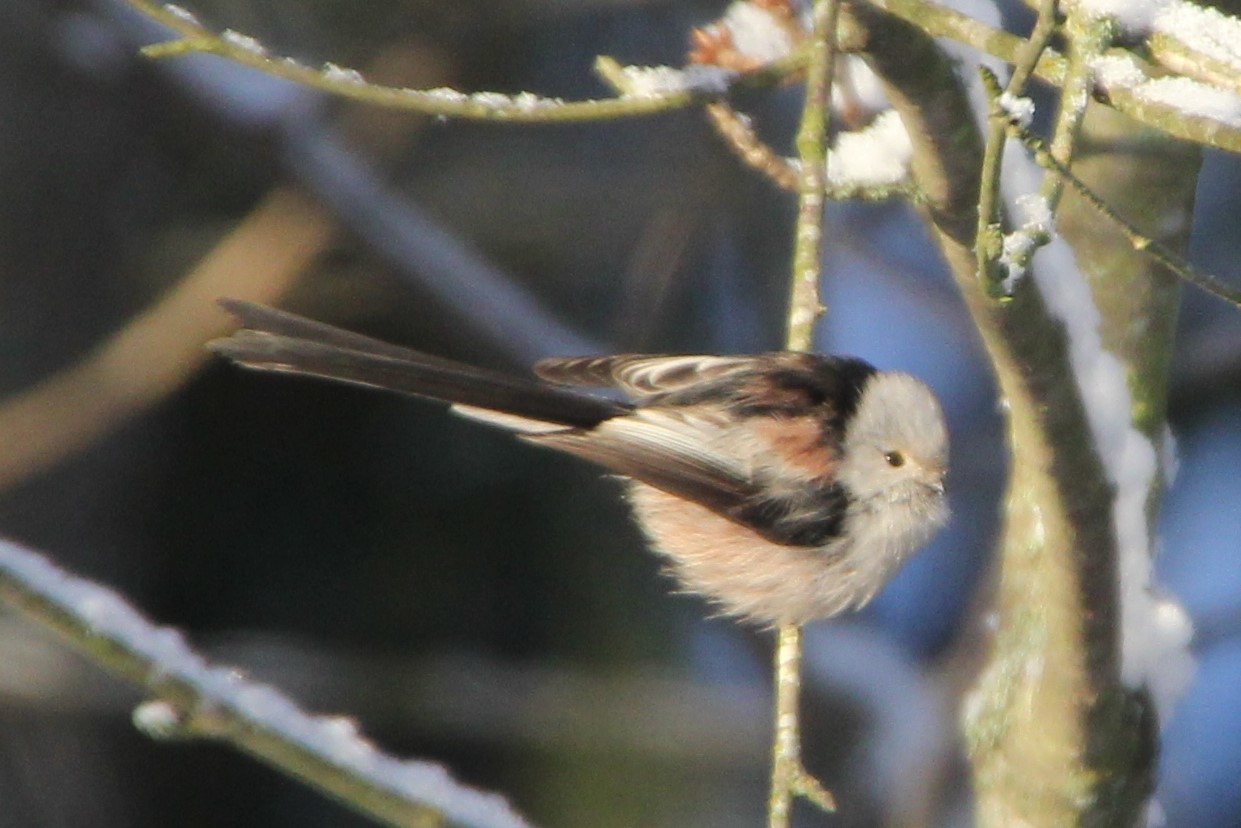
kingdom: Animalia
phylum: Chordata
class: Aves
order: Passeriformes
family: Aegithalidae
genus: Aegithalos
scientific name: Aegithalos caudatus
